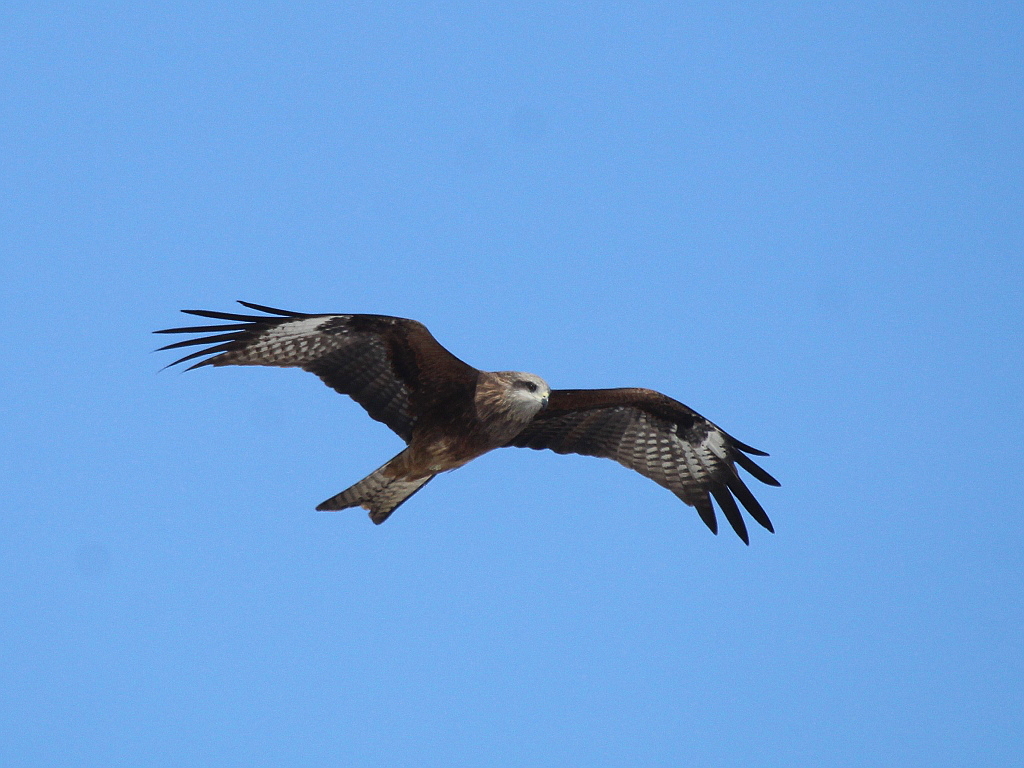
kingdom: Animalia
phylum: Chordata
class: Aves
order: Accipitriformes
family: Accipitridae
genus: Milvus
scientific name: Milvus migrans
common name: Black kite
